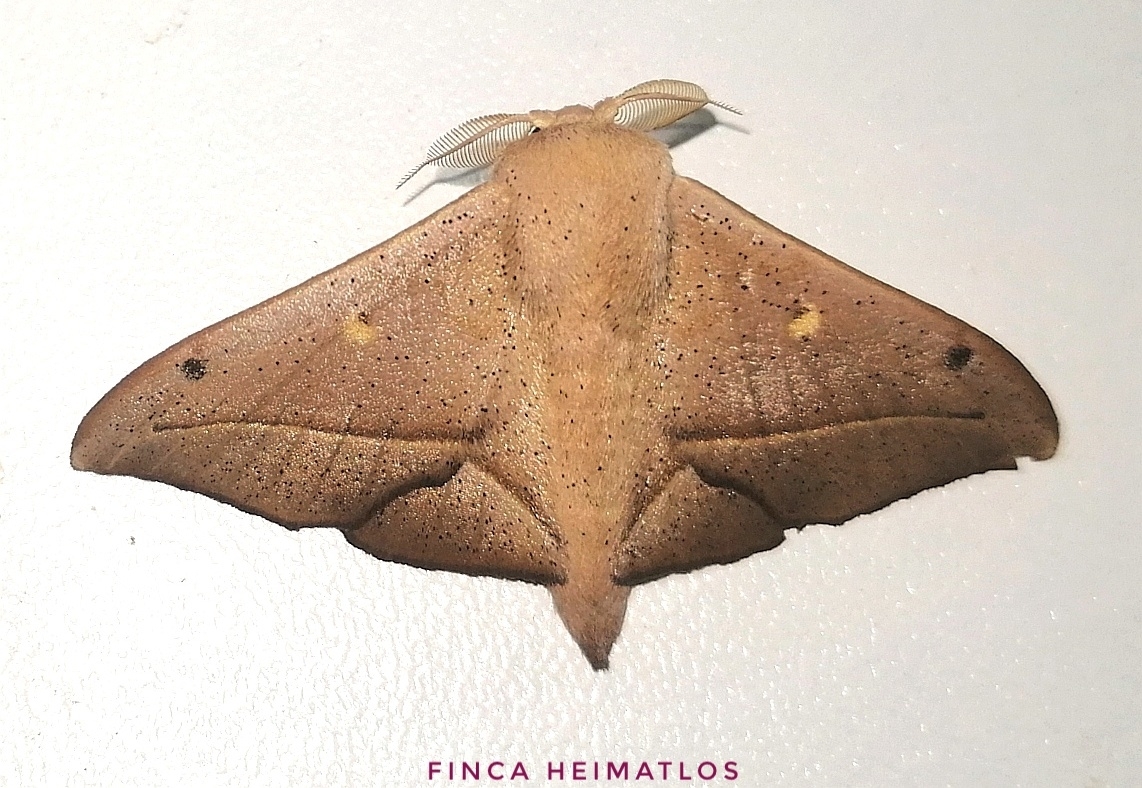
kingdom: Animalia
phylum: Arthropoda
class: Insecta
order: Lepidoptera
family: Mimallonidae
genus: Druentica
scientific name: Druentica partha
